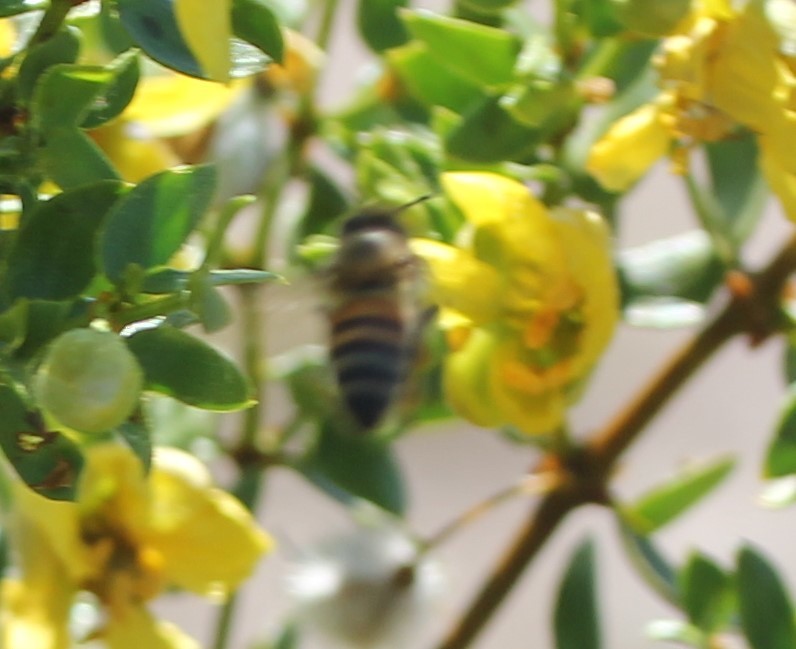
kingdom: Animalia
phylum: Arthropoda
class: Insecta
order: Hymenoptera
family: Apidae
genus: Apis
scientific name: Apis mellifera
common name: Honey bee
